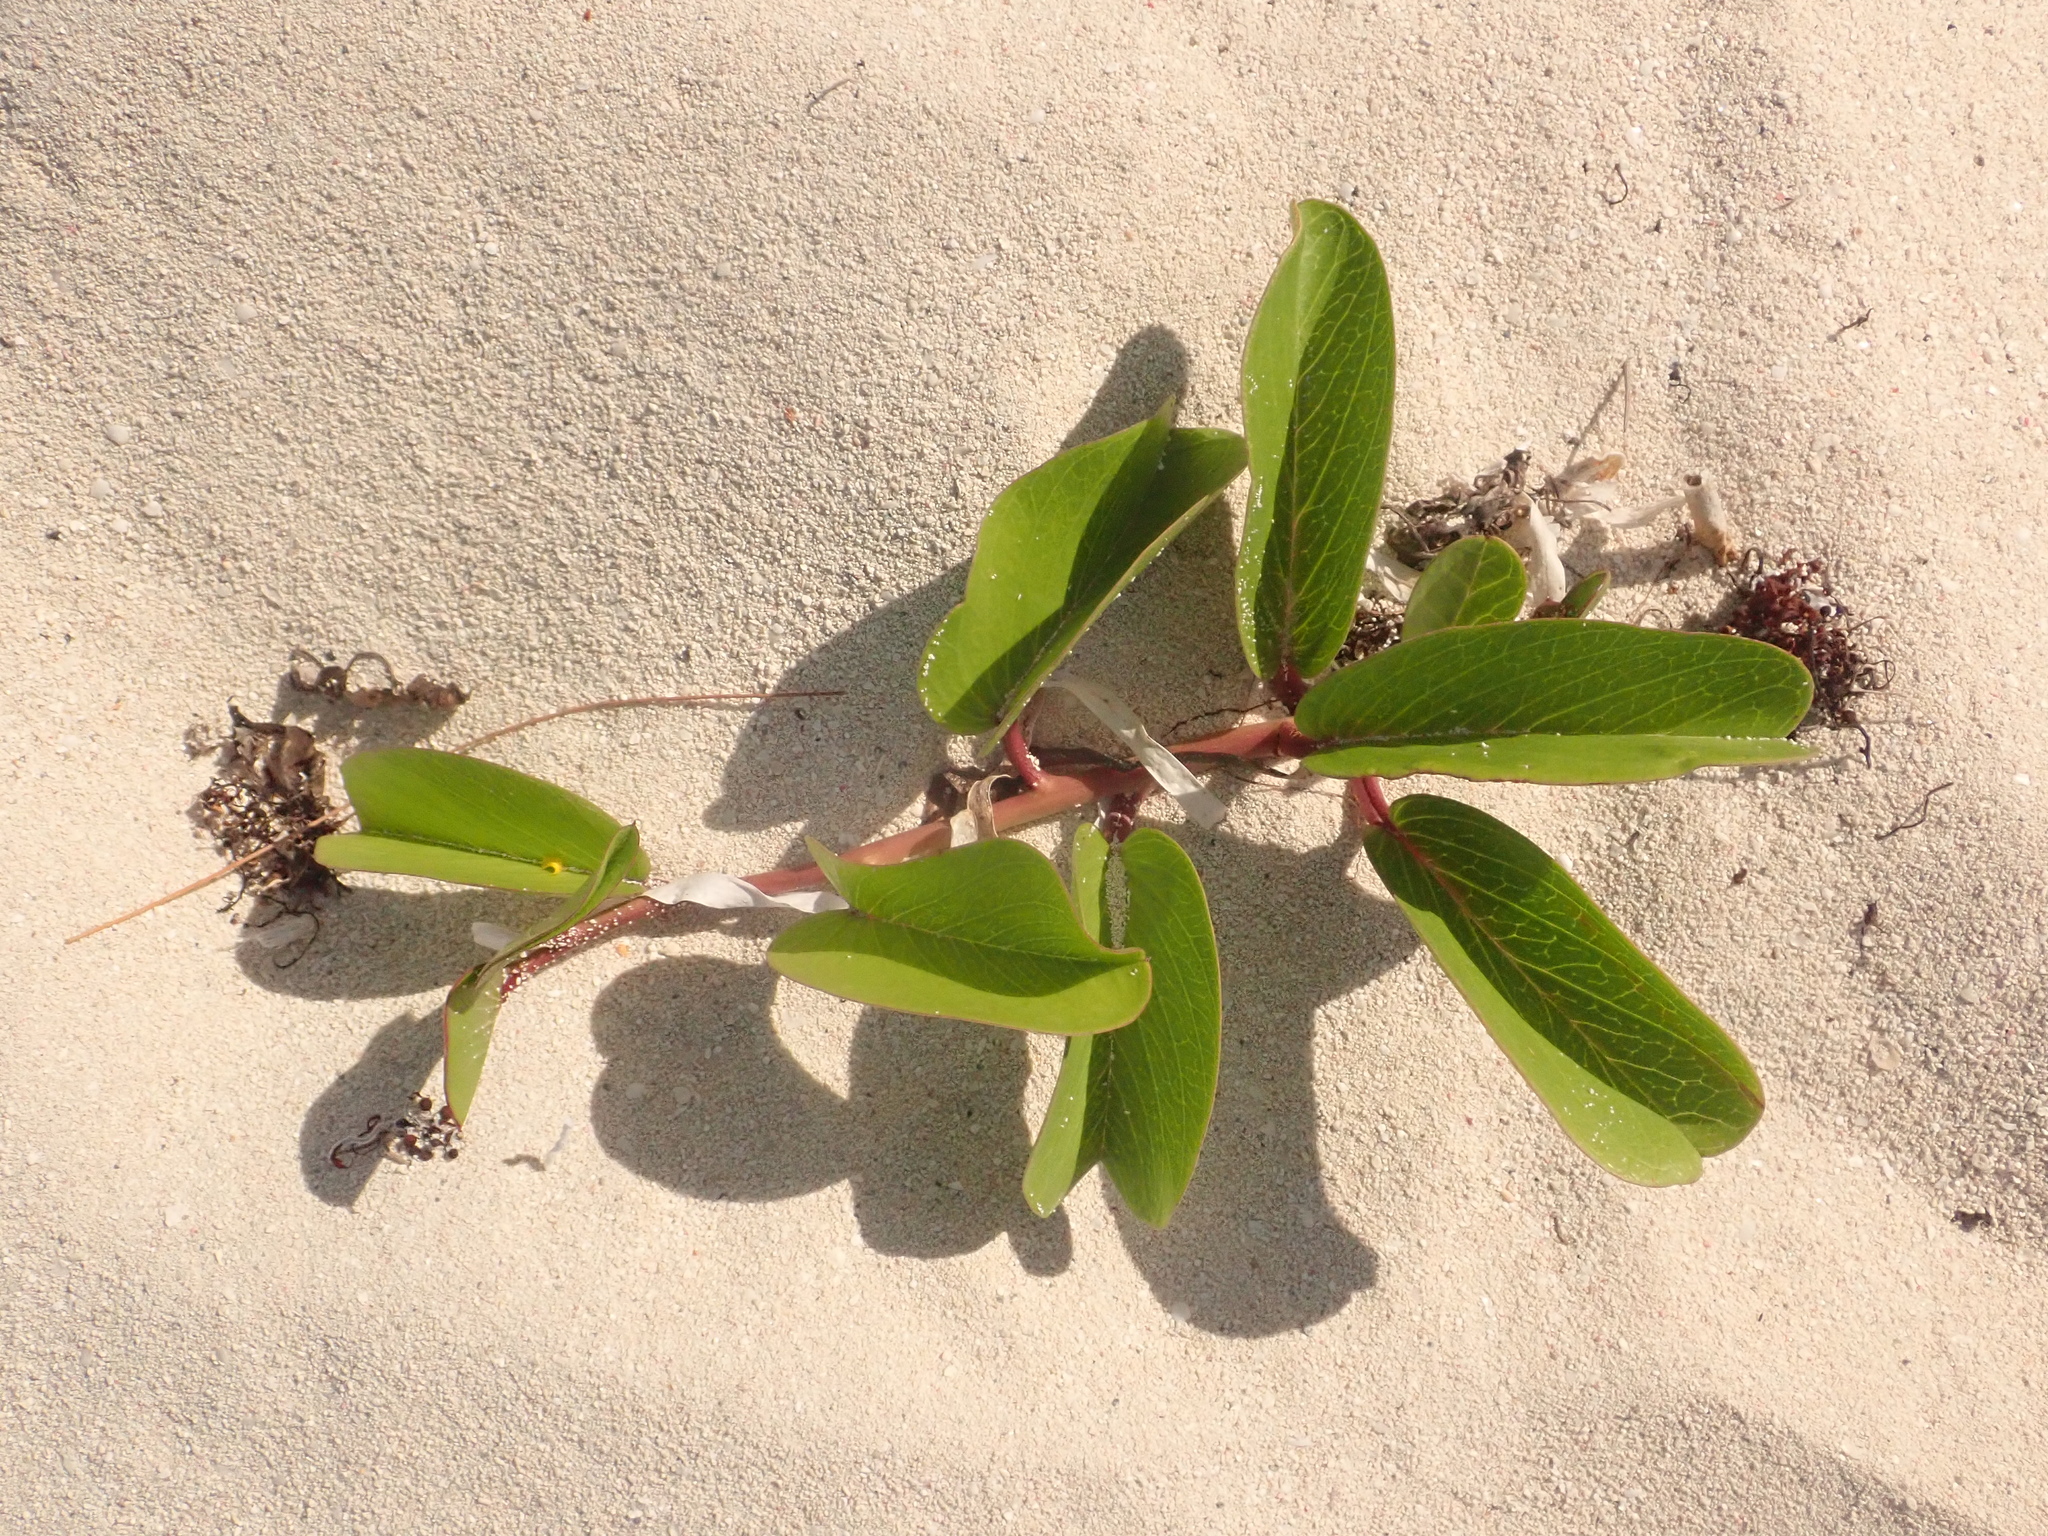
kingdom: Plantae
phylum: Tracheophyta
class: Magnoliopsida
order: Solanales
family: Convolvulaceae
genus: Ipomoea
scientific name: Ipomoea pes-caprae
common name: Beach morning glory
